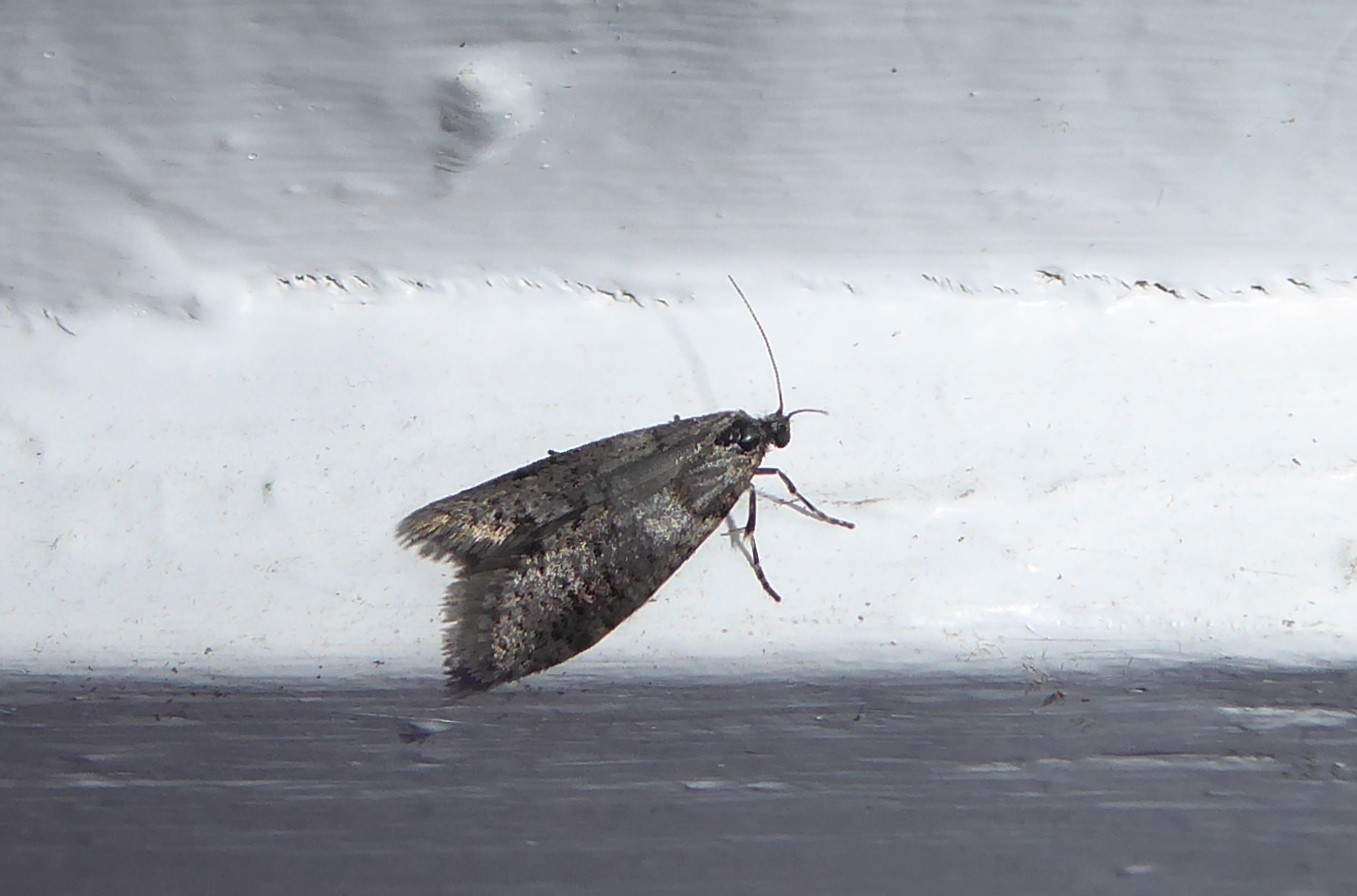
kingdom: Animalia
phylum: Arthropoda
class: Insecta
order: Lepidoptera
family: Psychidae
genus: Lepidoscia
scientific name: Lepidoscia heliochares
